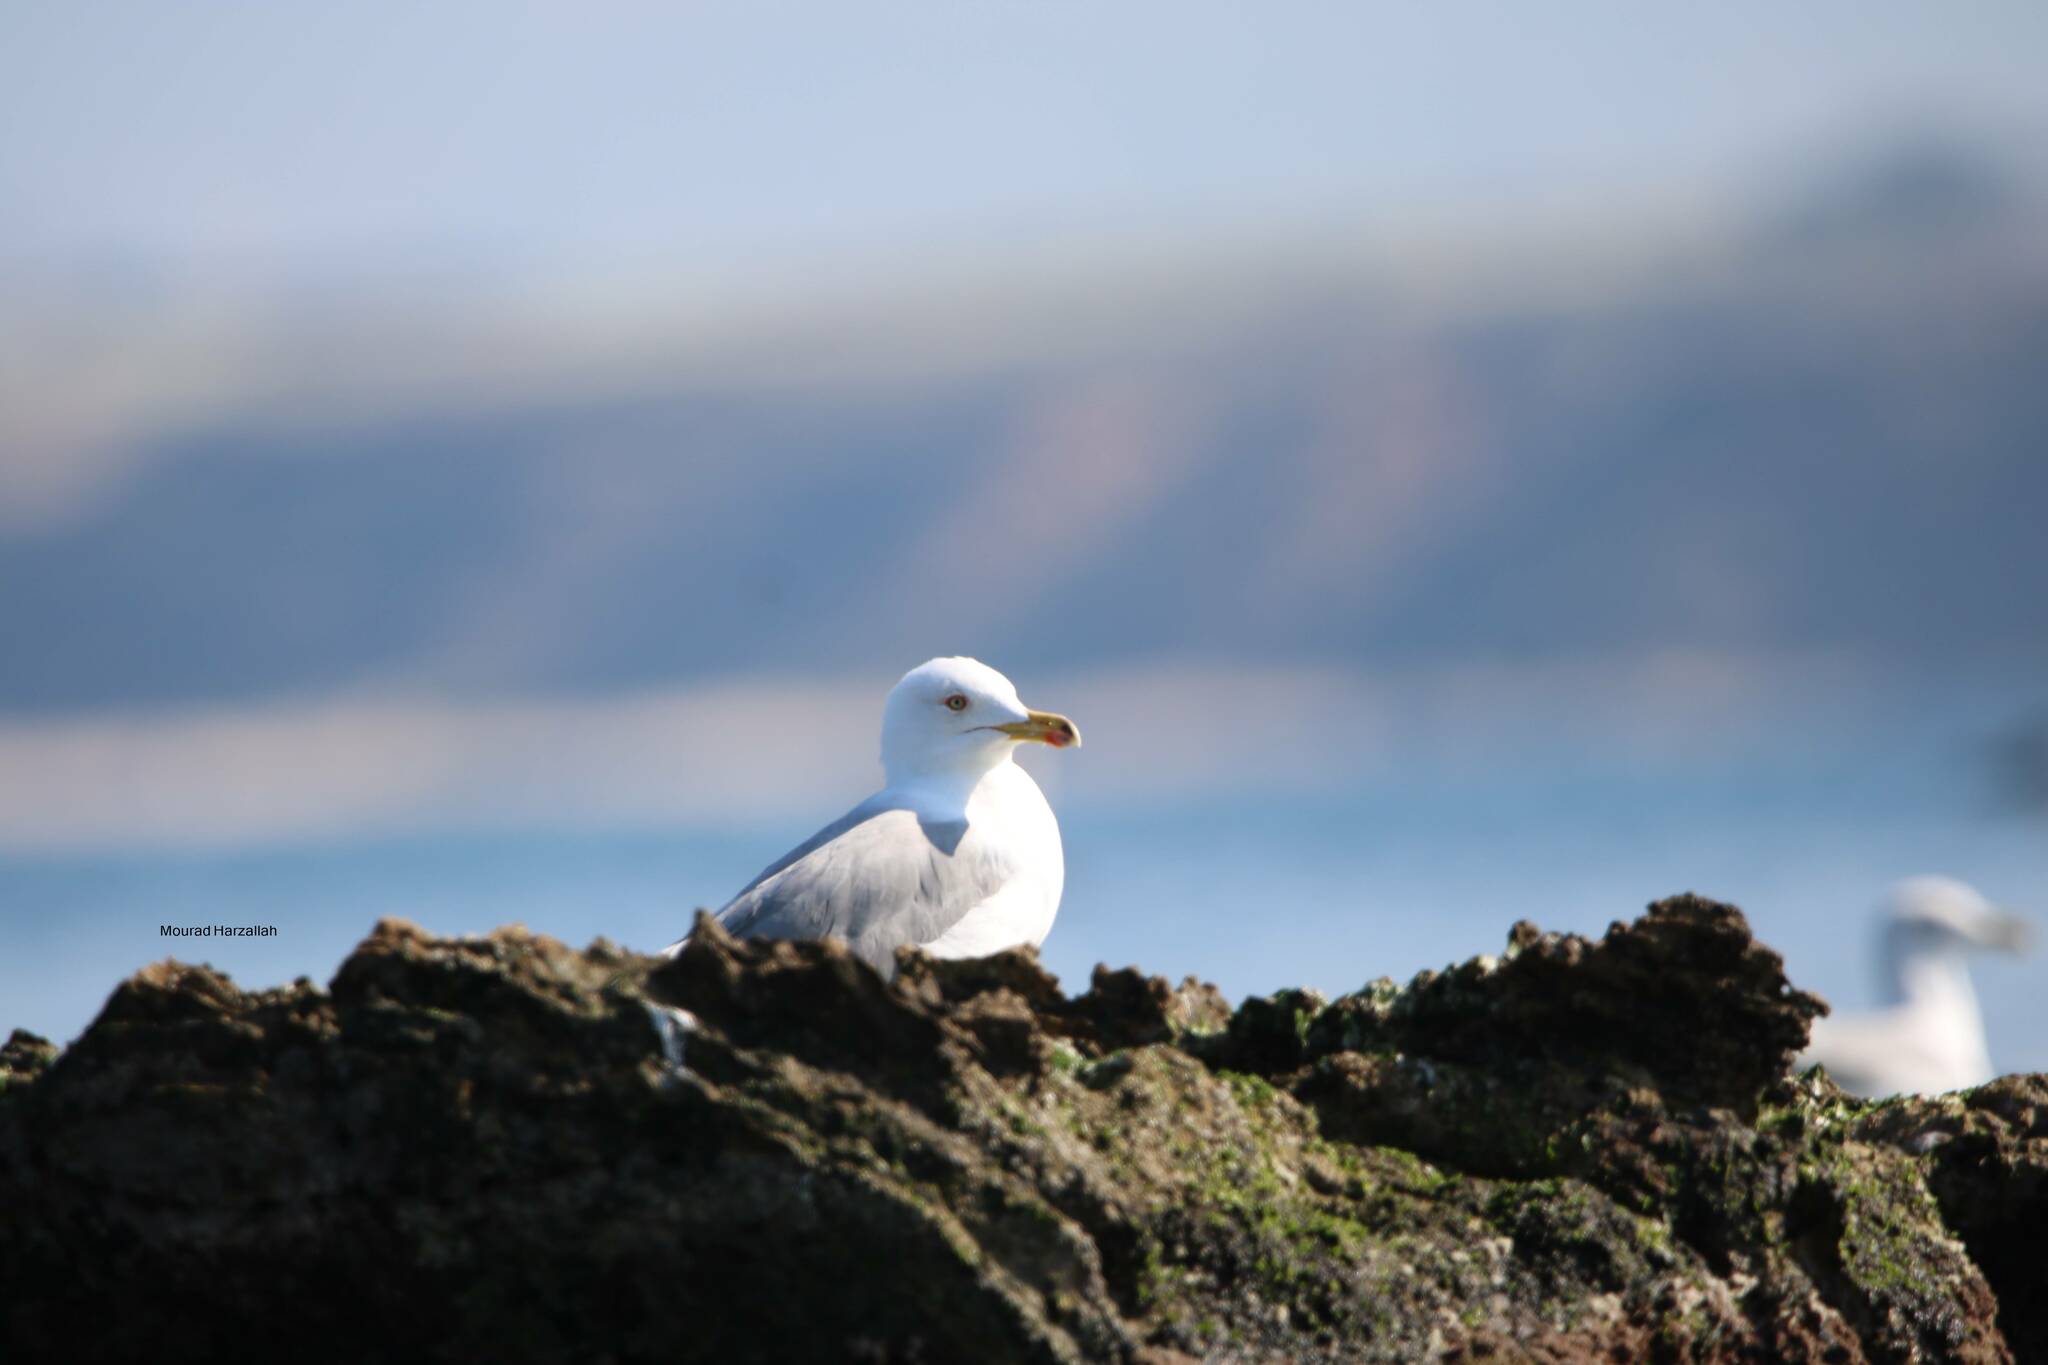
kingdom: Animalia
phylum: Chordata
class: Aves
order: Charadriiformes
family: Laridae
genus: Larus
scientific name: Larus michahellis
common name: Yellow-legged gull
